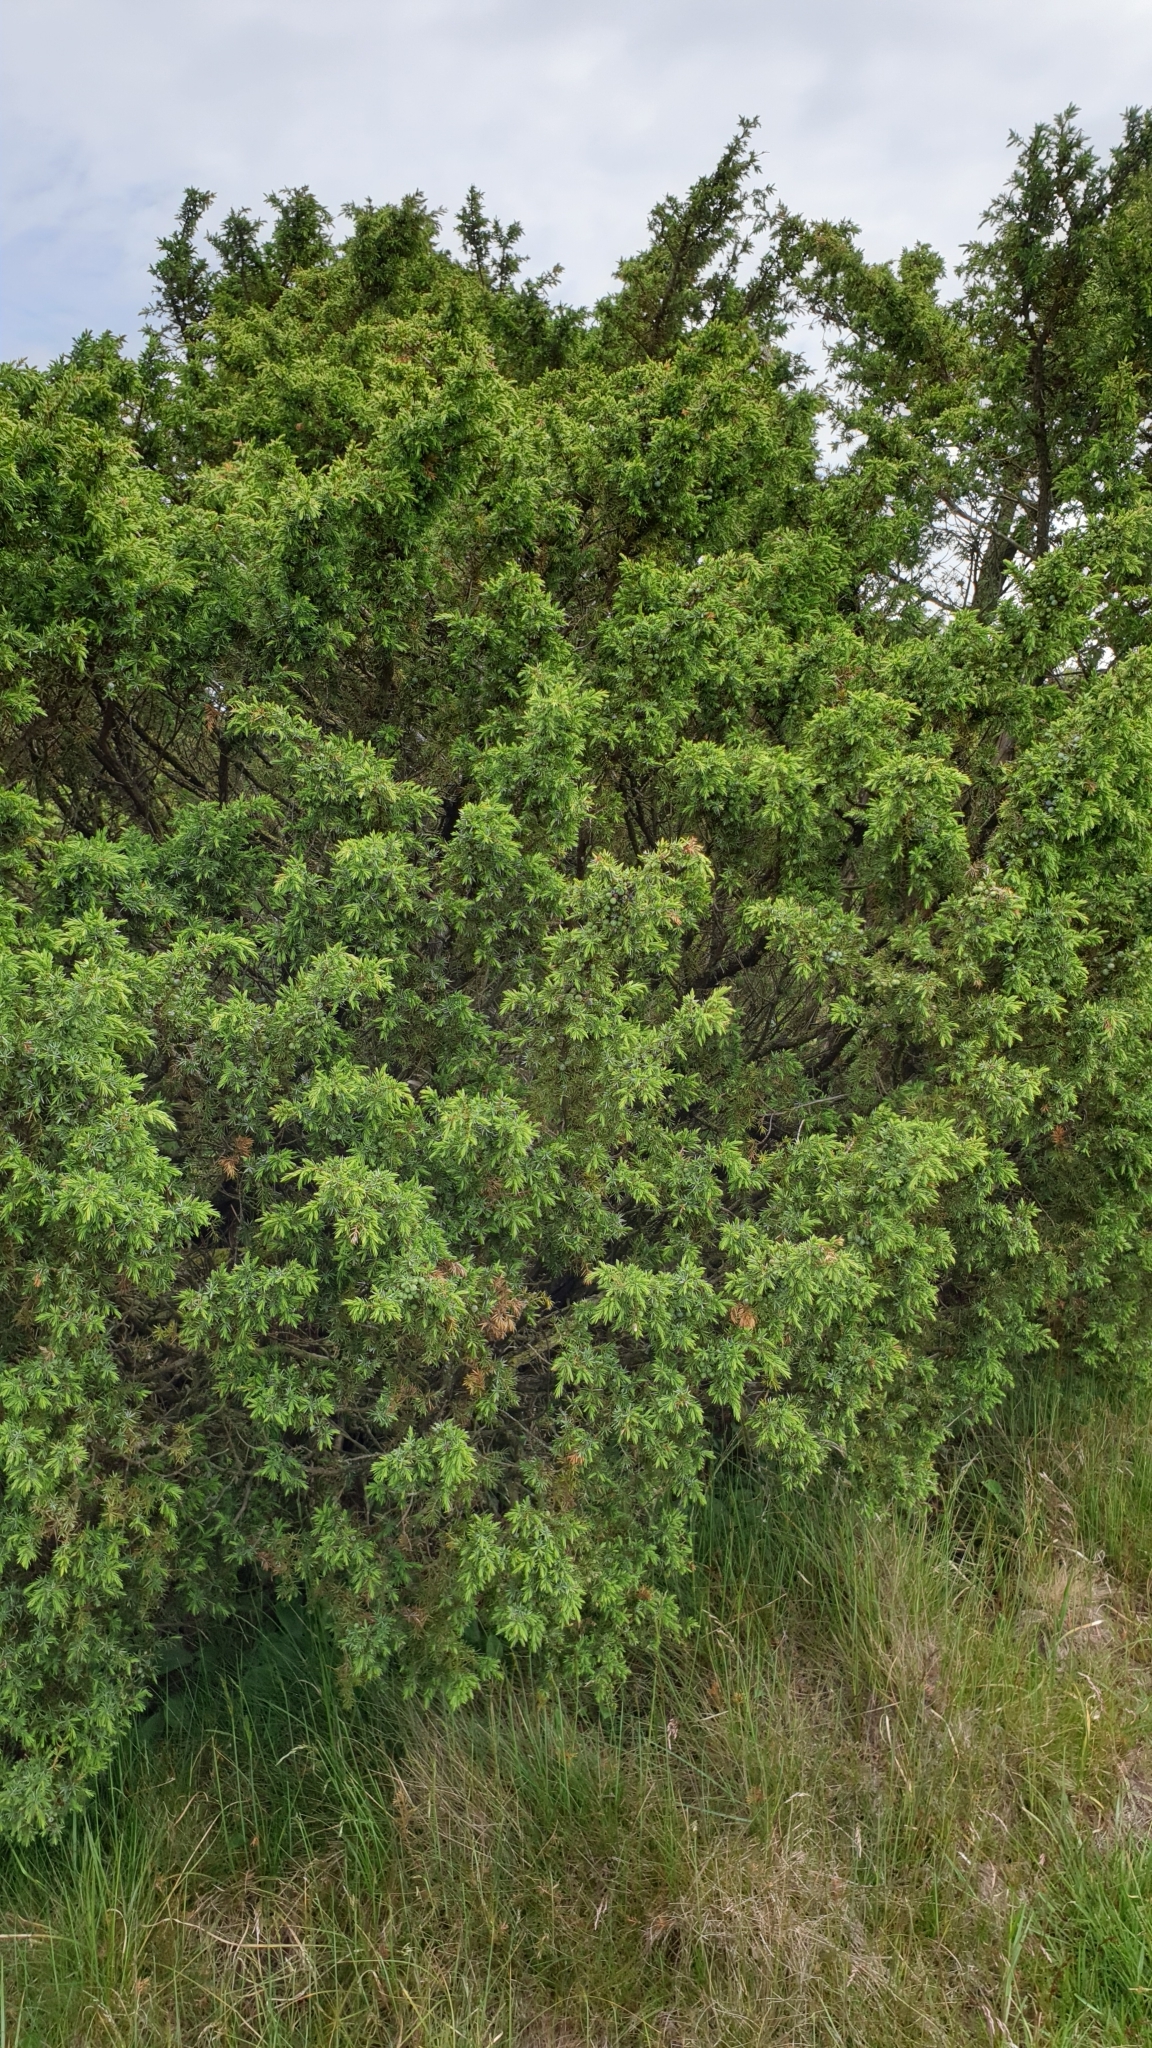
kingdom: Plantae
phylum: Tracheophyta
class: Pinopsida
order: Pinales
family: Cupressaceae
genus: Juniperus
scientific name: Juniperus communis
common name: Common juniper
